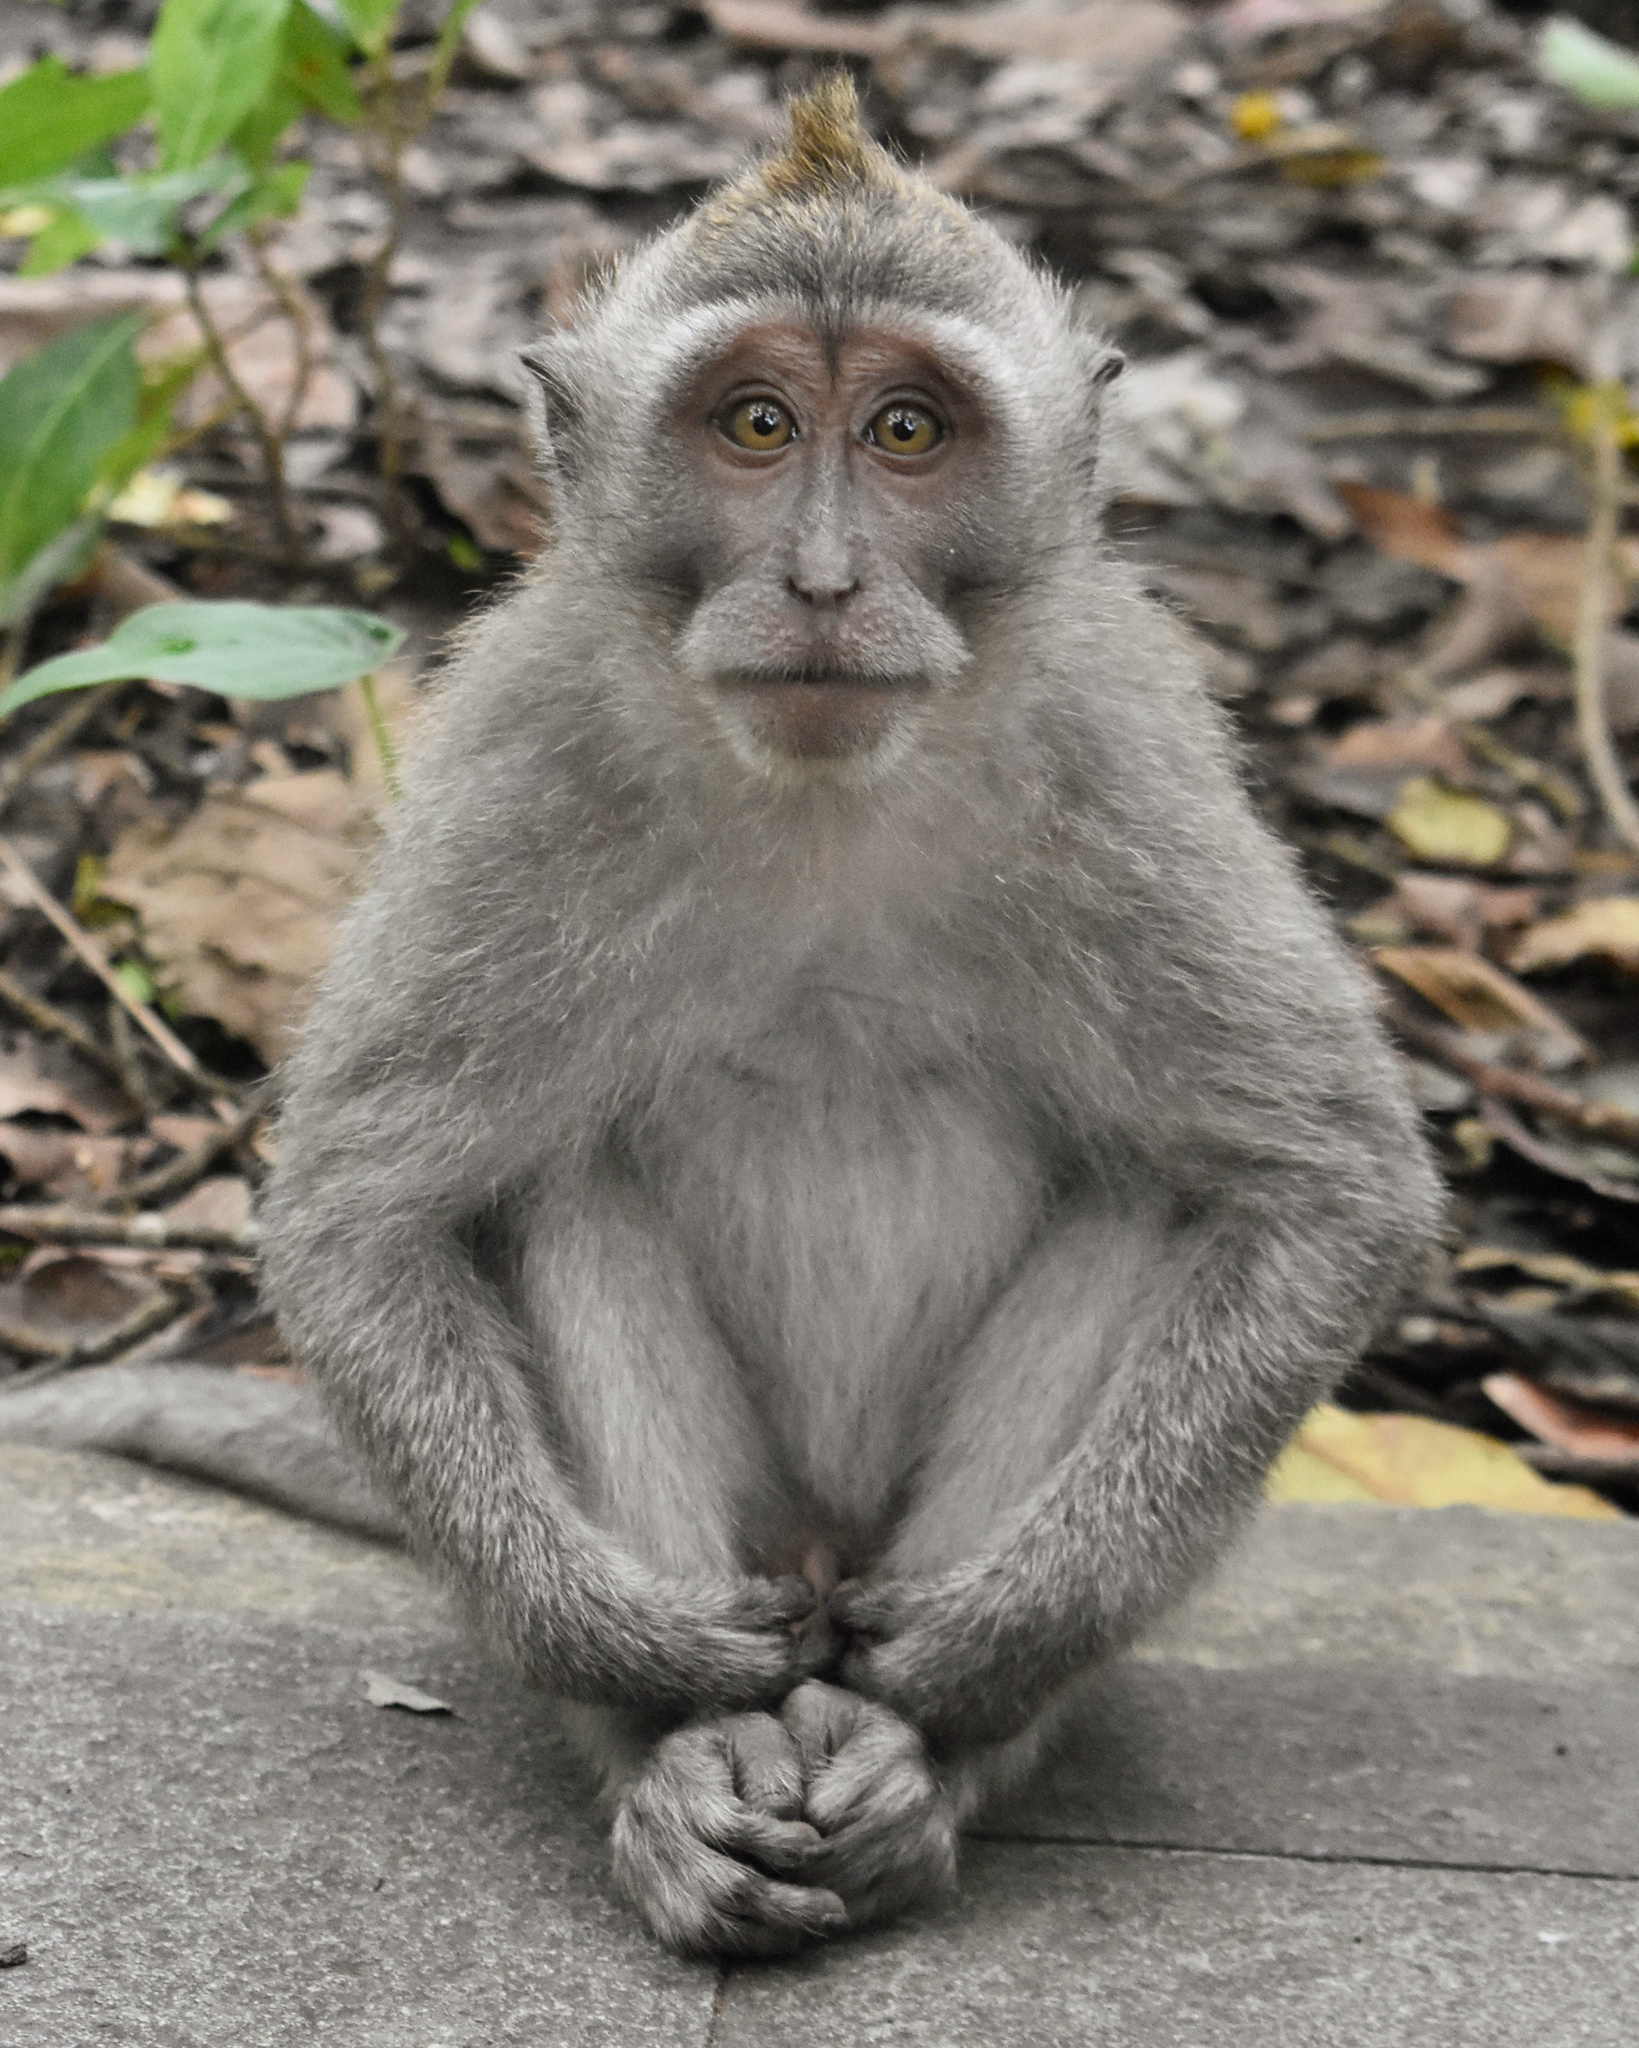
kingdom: Animalia
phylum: Chordata
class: Mammalia
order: Primates
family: Cercopithecidae
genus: Macaca
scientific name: Macaca fascicularis
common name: Crab-eating macaque
